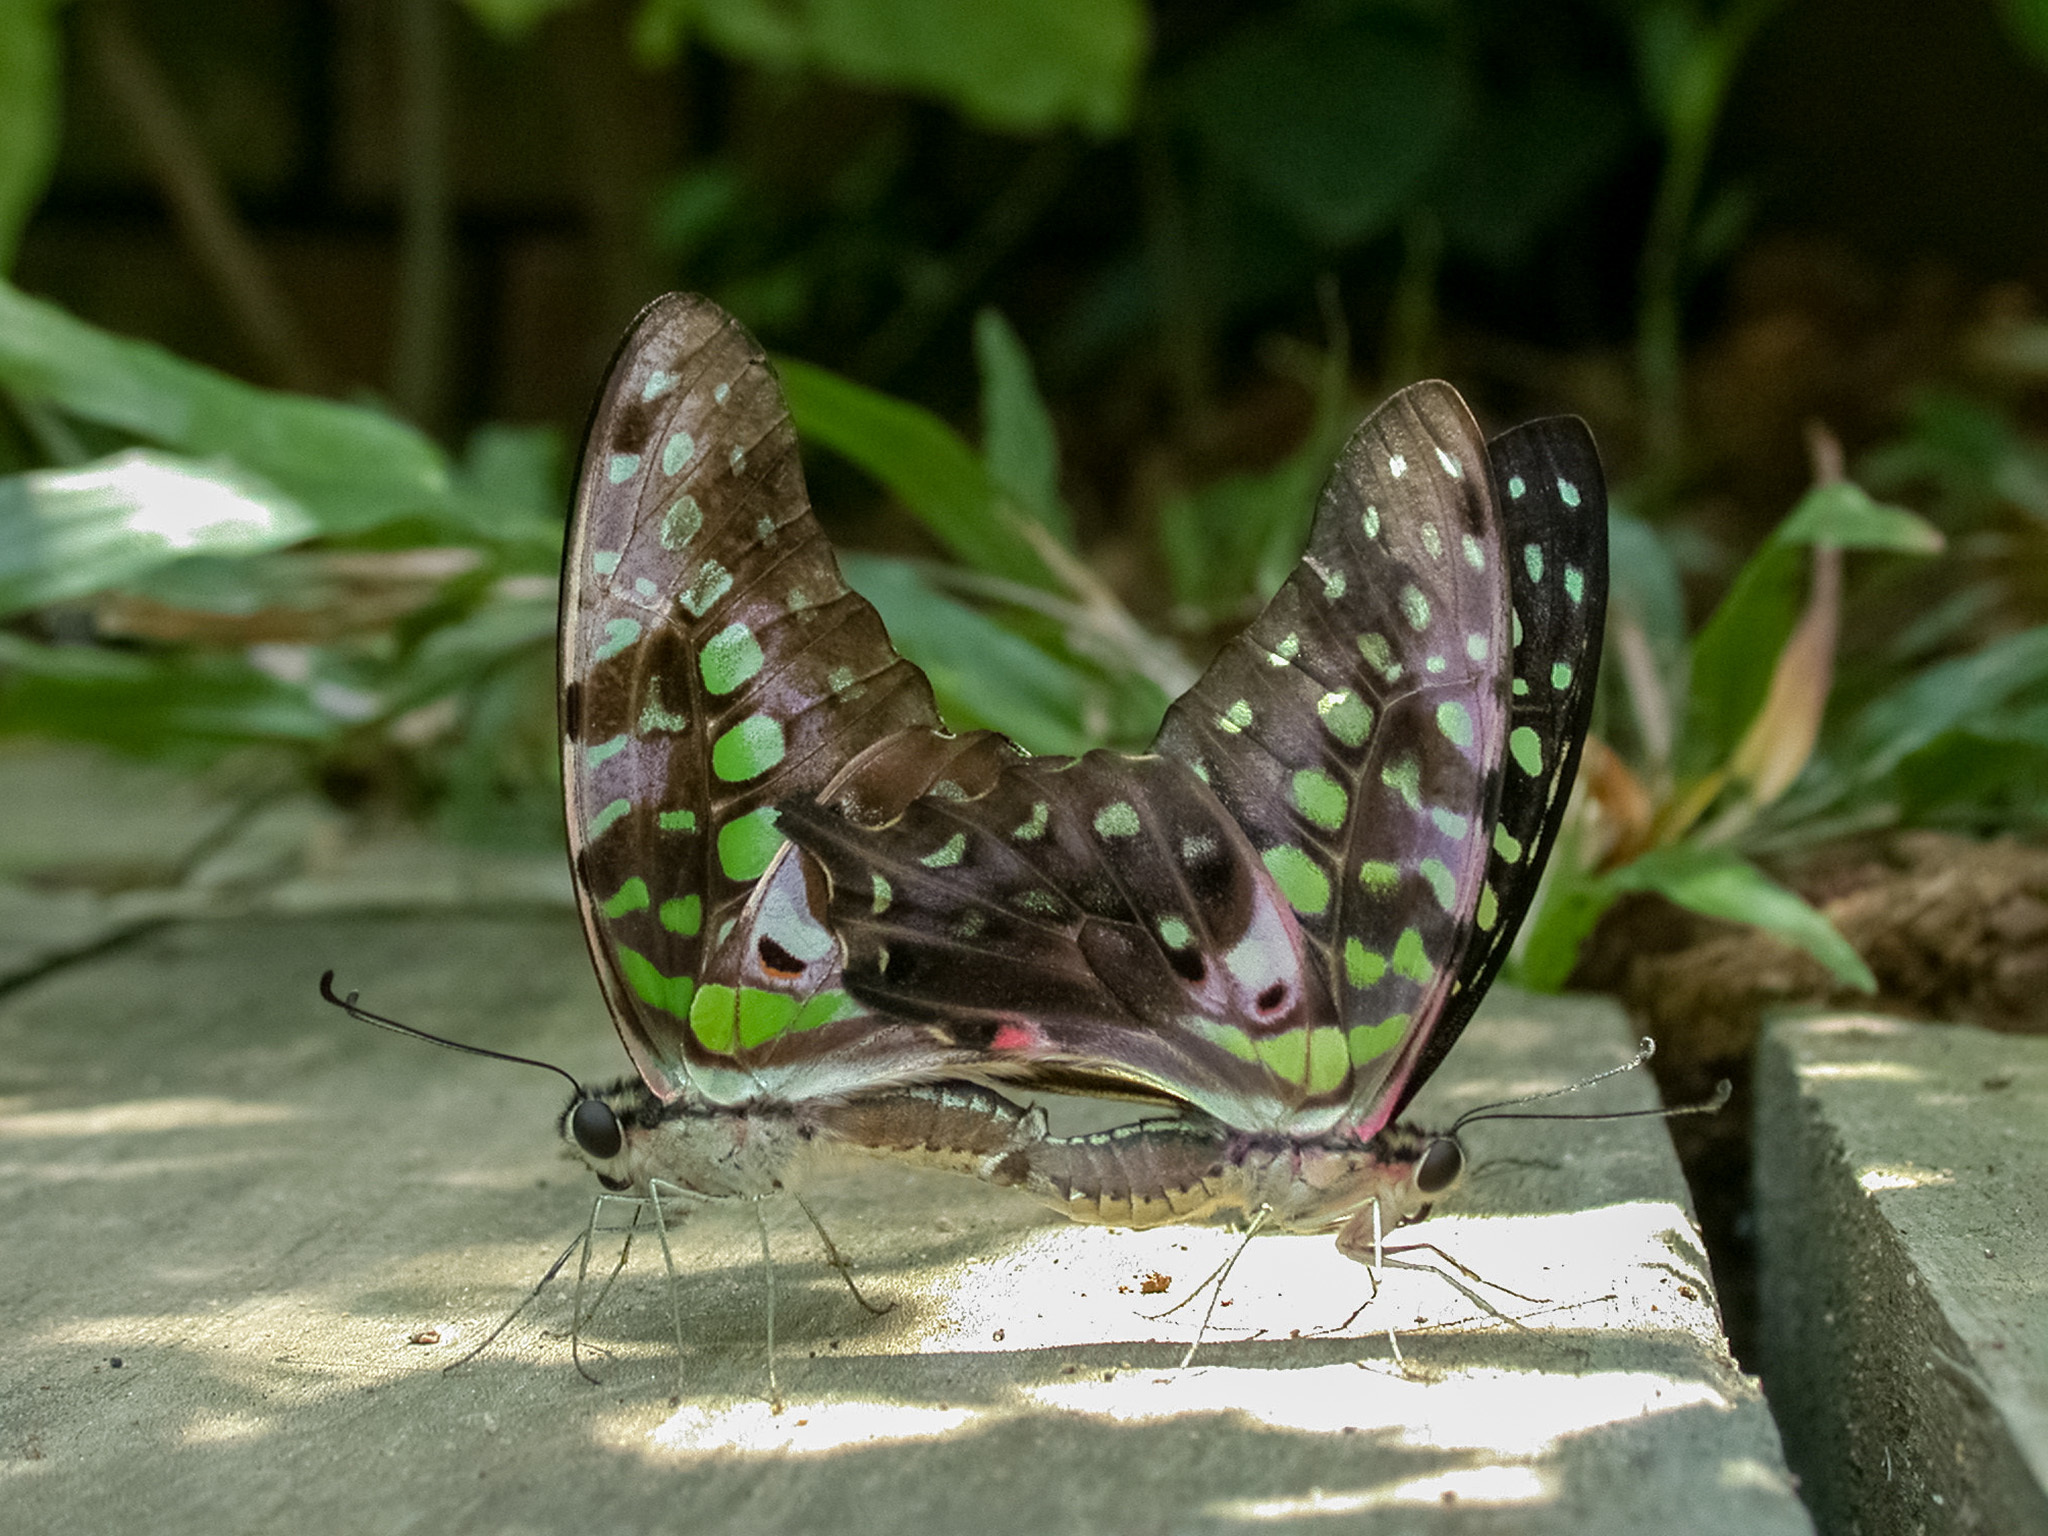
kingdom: Animalia
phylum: Arthropoda
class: Insecta
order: Lepidoptera
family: Papilionidae
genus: Graphium
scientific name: Graphium agamemnon
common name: Tailed jay
